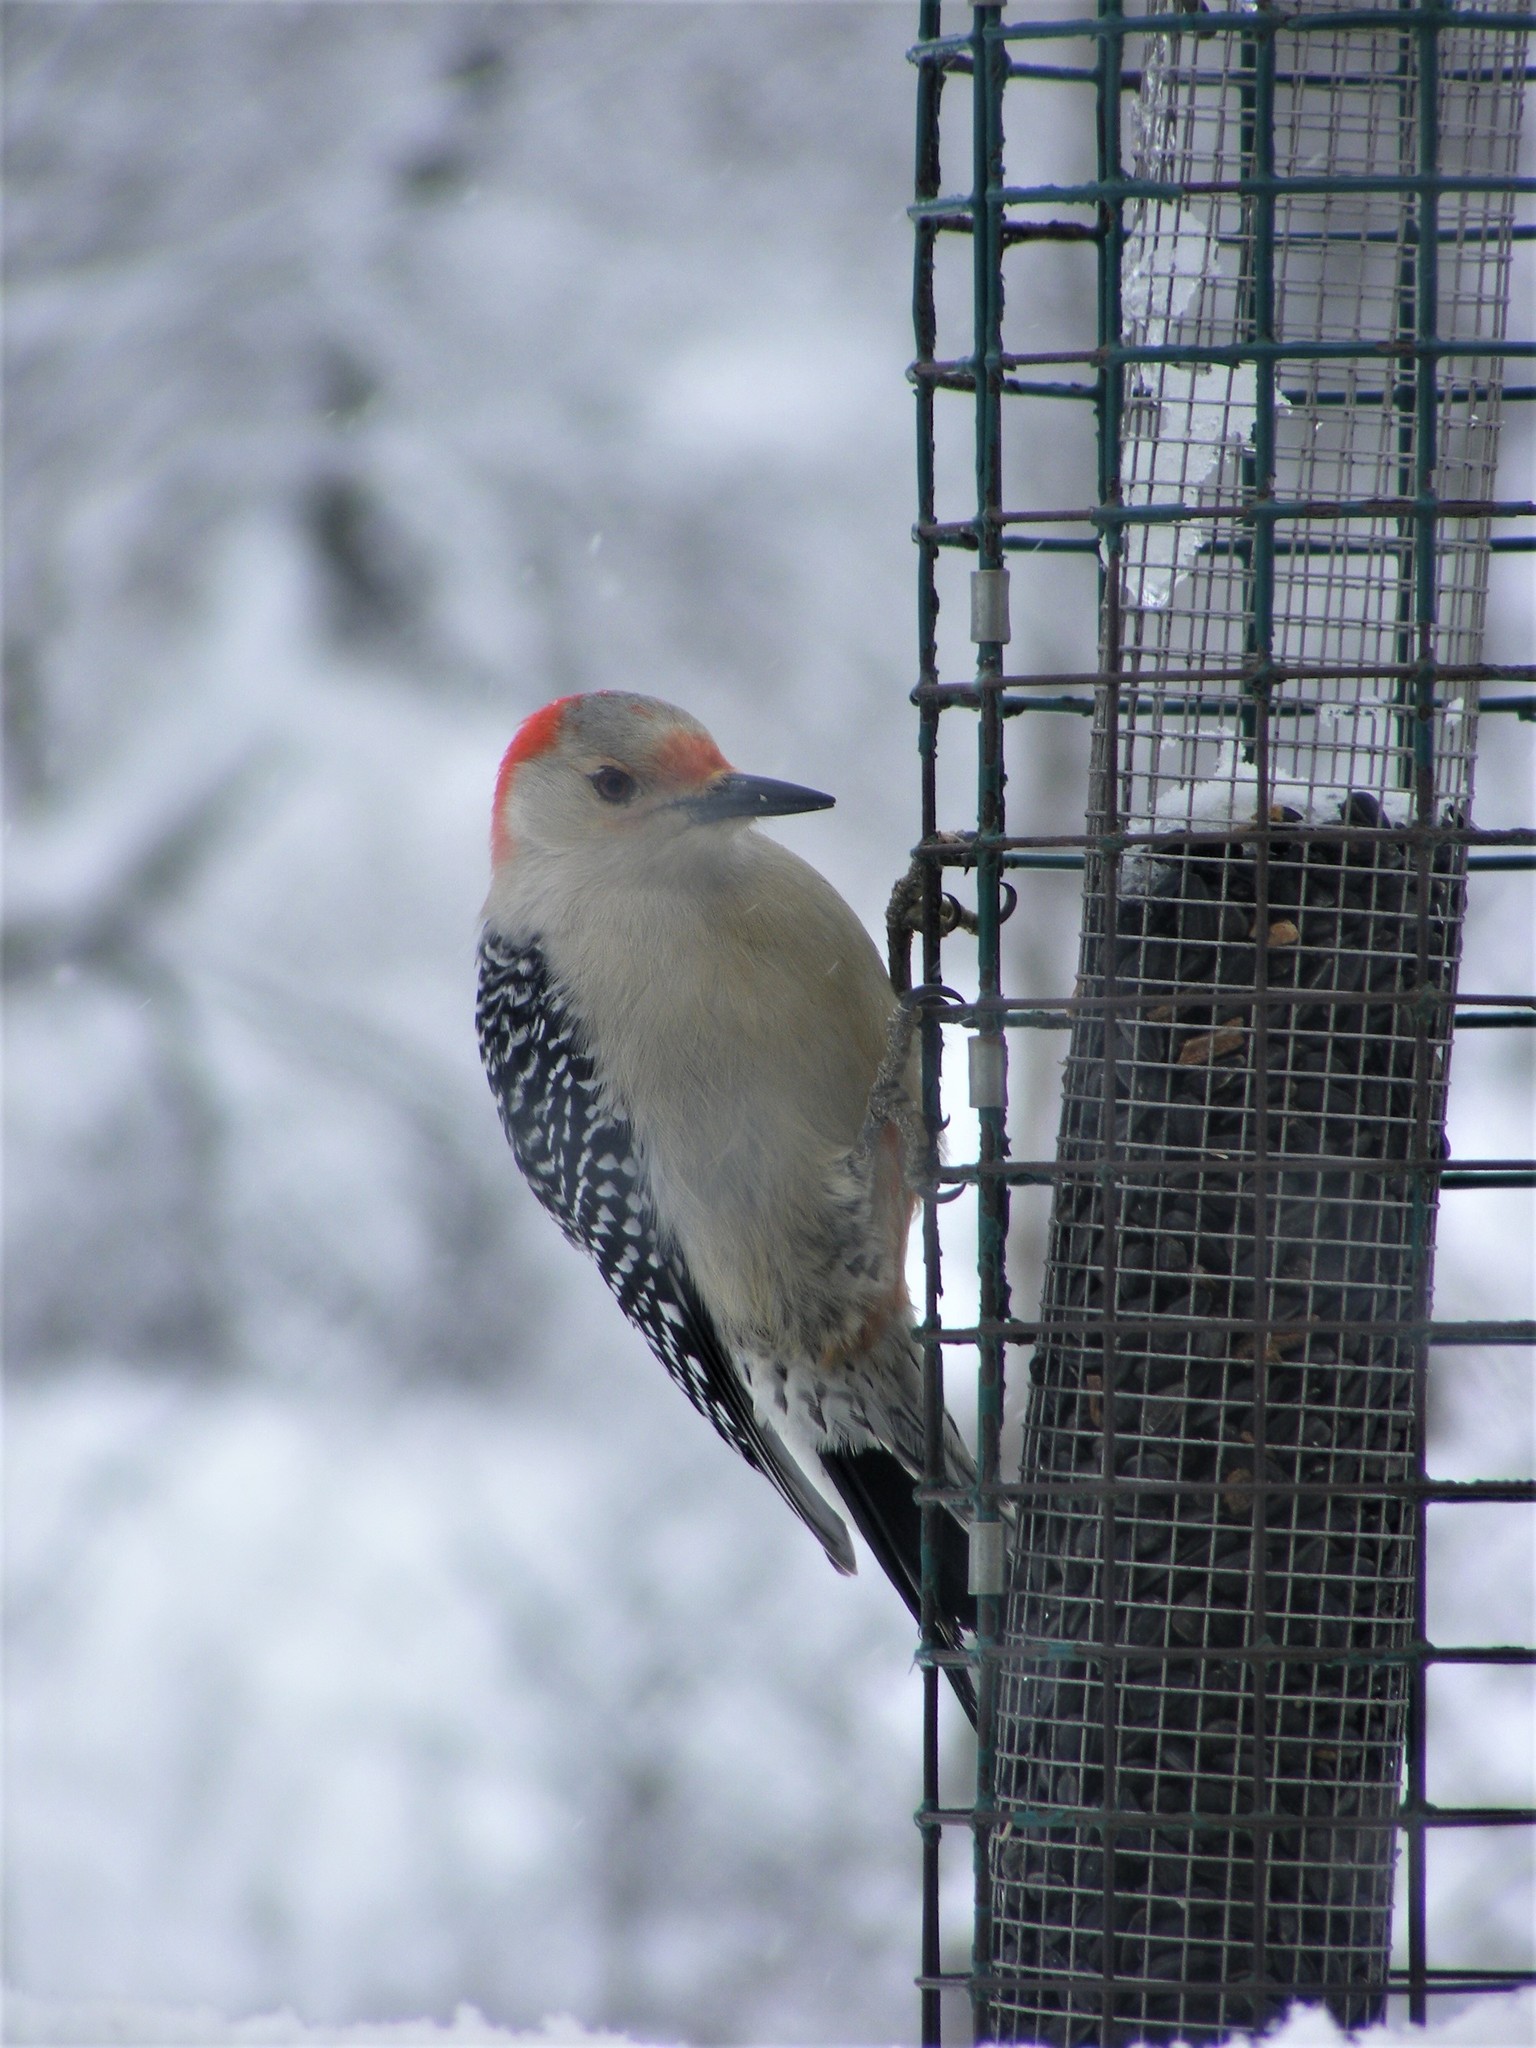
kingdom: Animalia
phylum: Chordata
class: Aves
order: Piciformes
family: Picidae
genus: Melanerpes
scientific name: Melanerpes carolinus
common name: Red-bellied woodpecker
